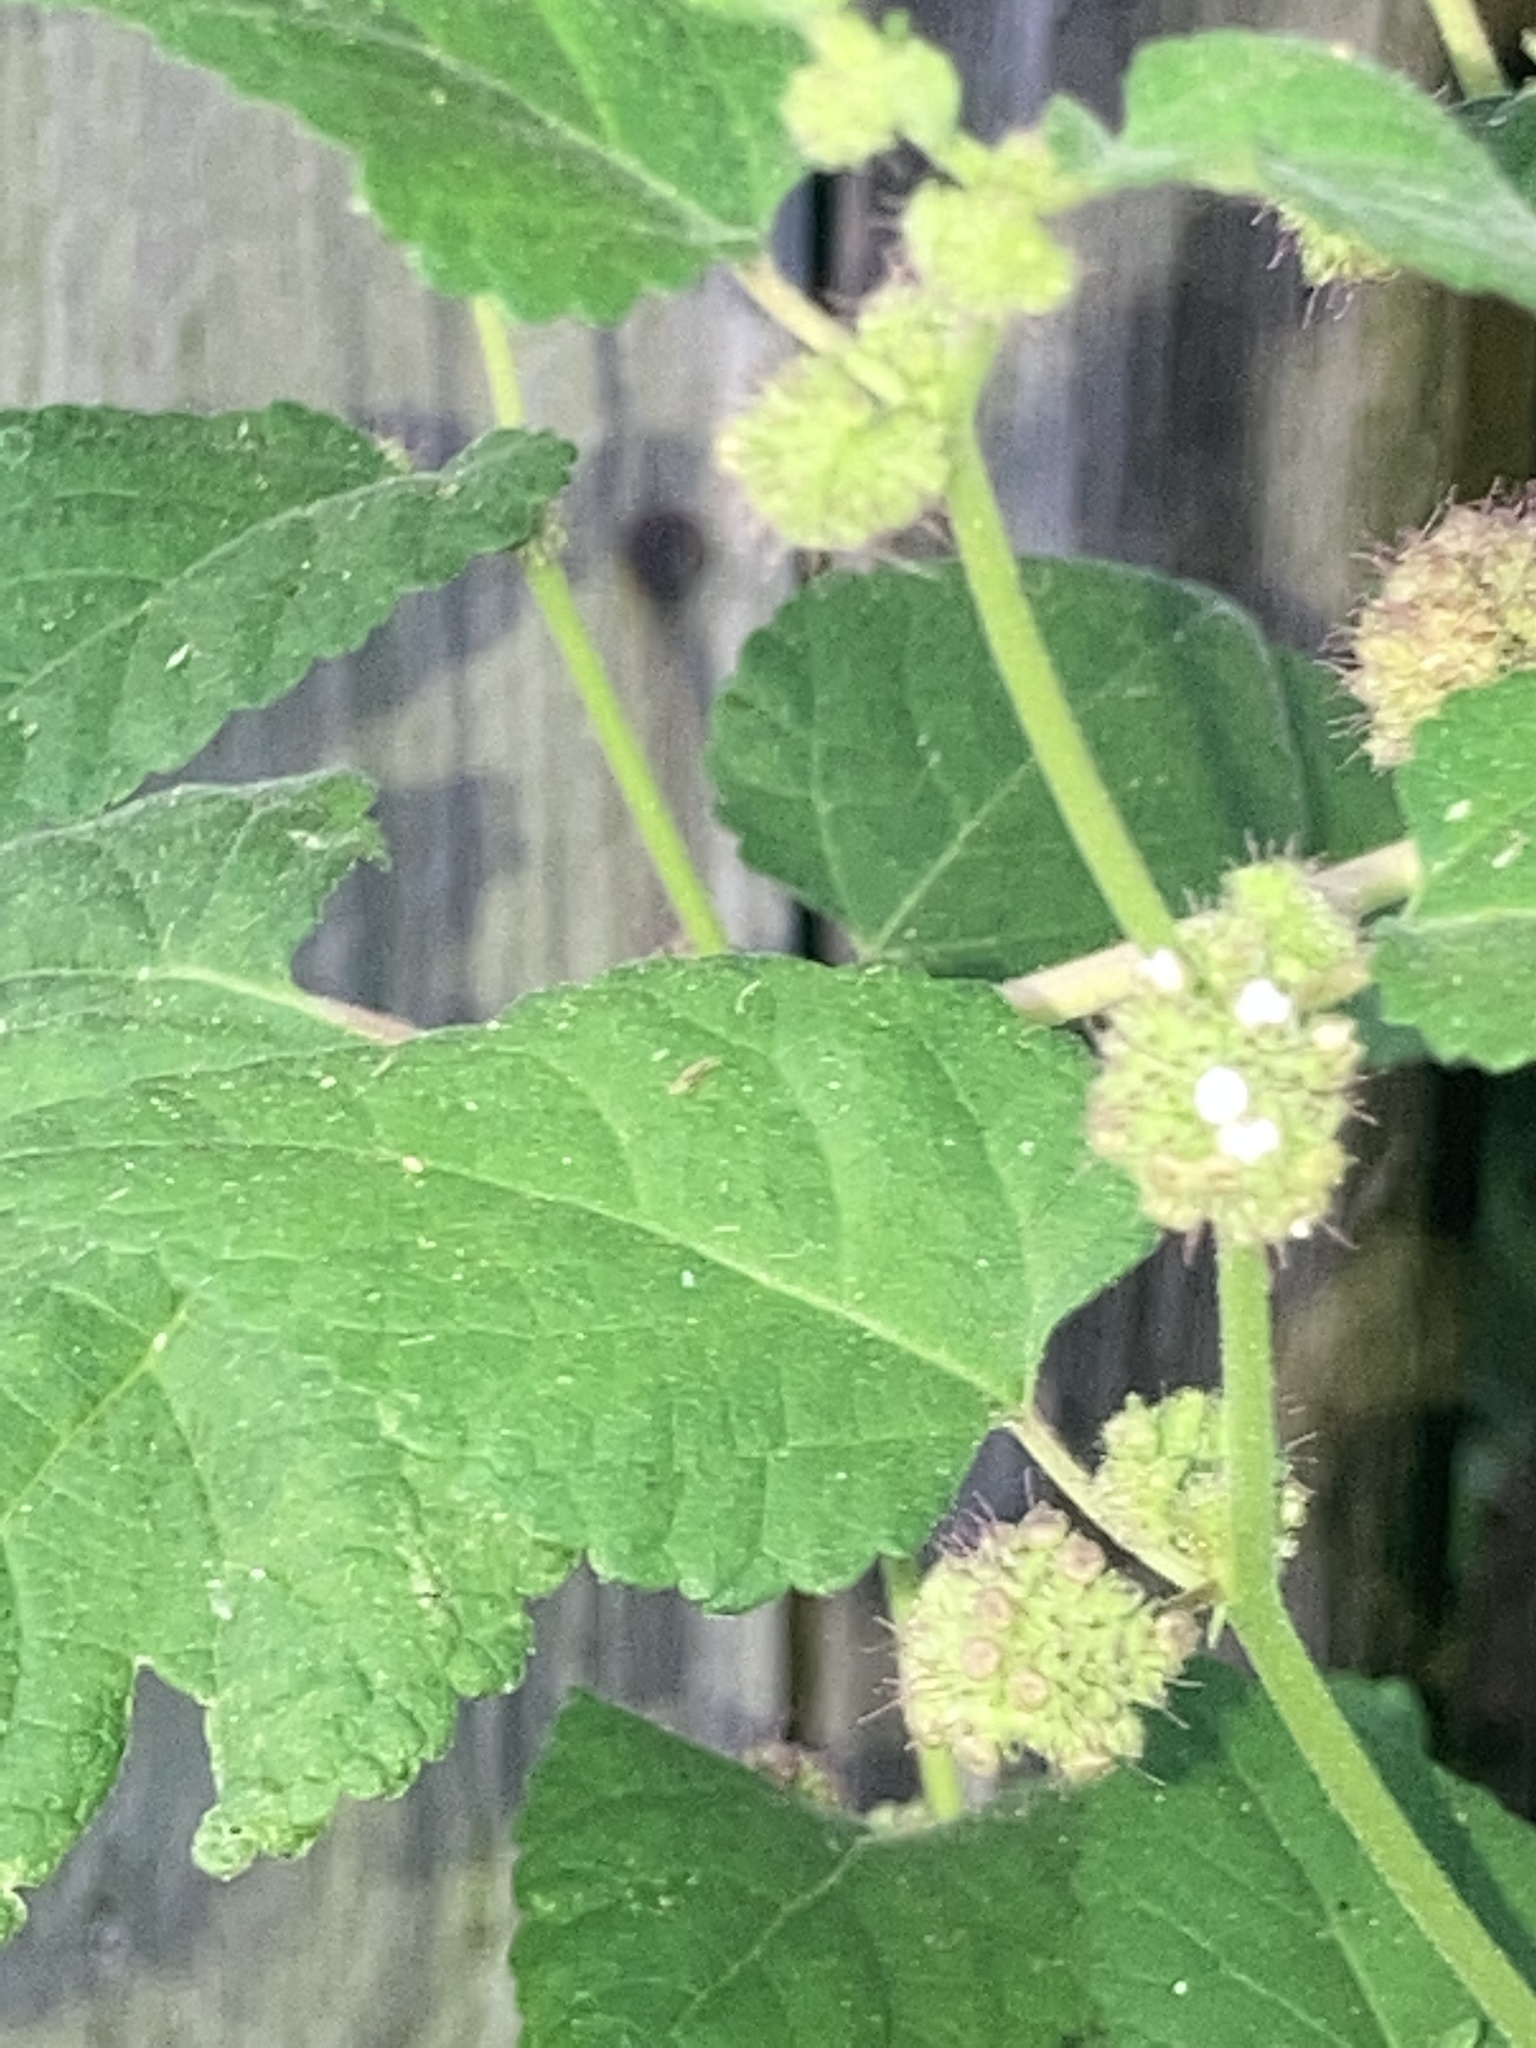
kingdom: Plantae
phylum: Tracheophyta
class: Magnoliopsida
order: Rosales
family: Moraceae
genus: Fatoua
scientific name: Fatoua villosa
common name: Hairy crabweed
